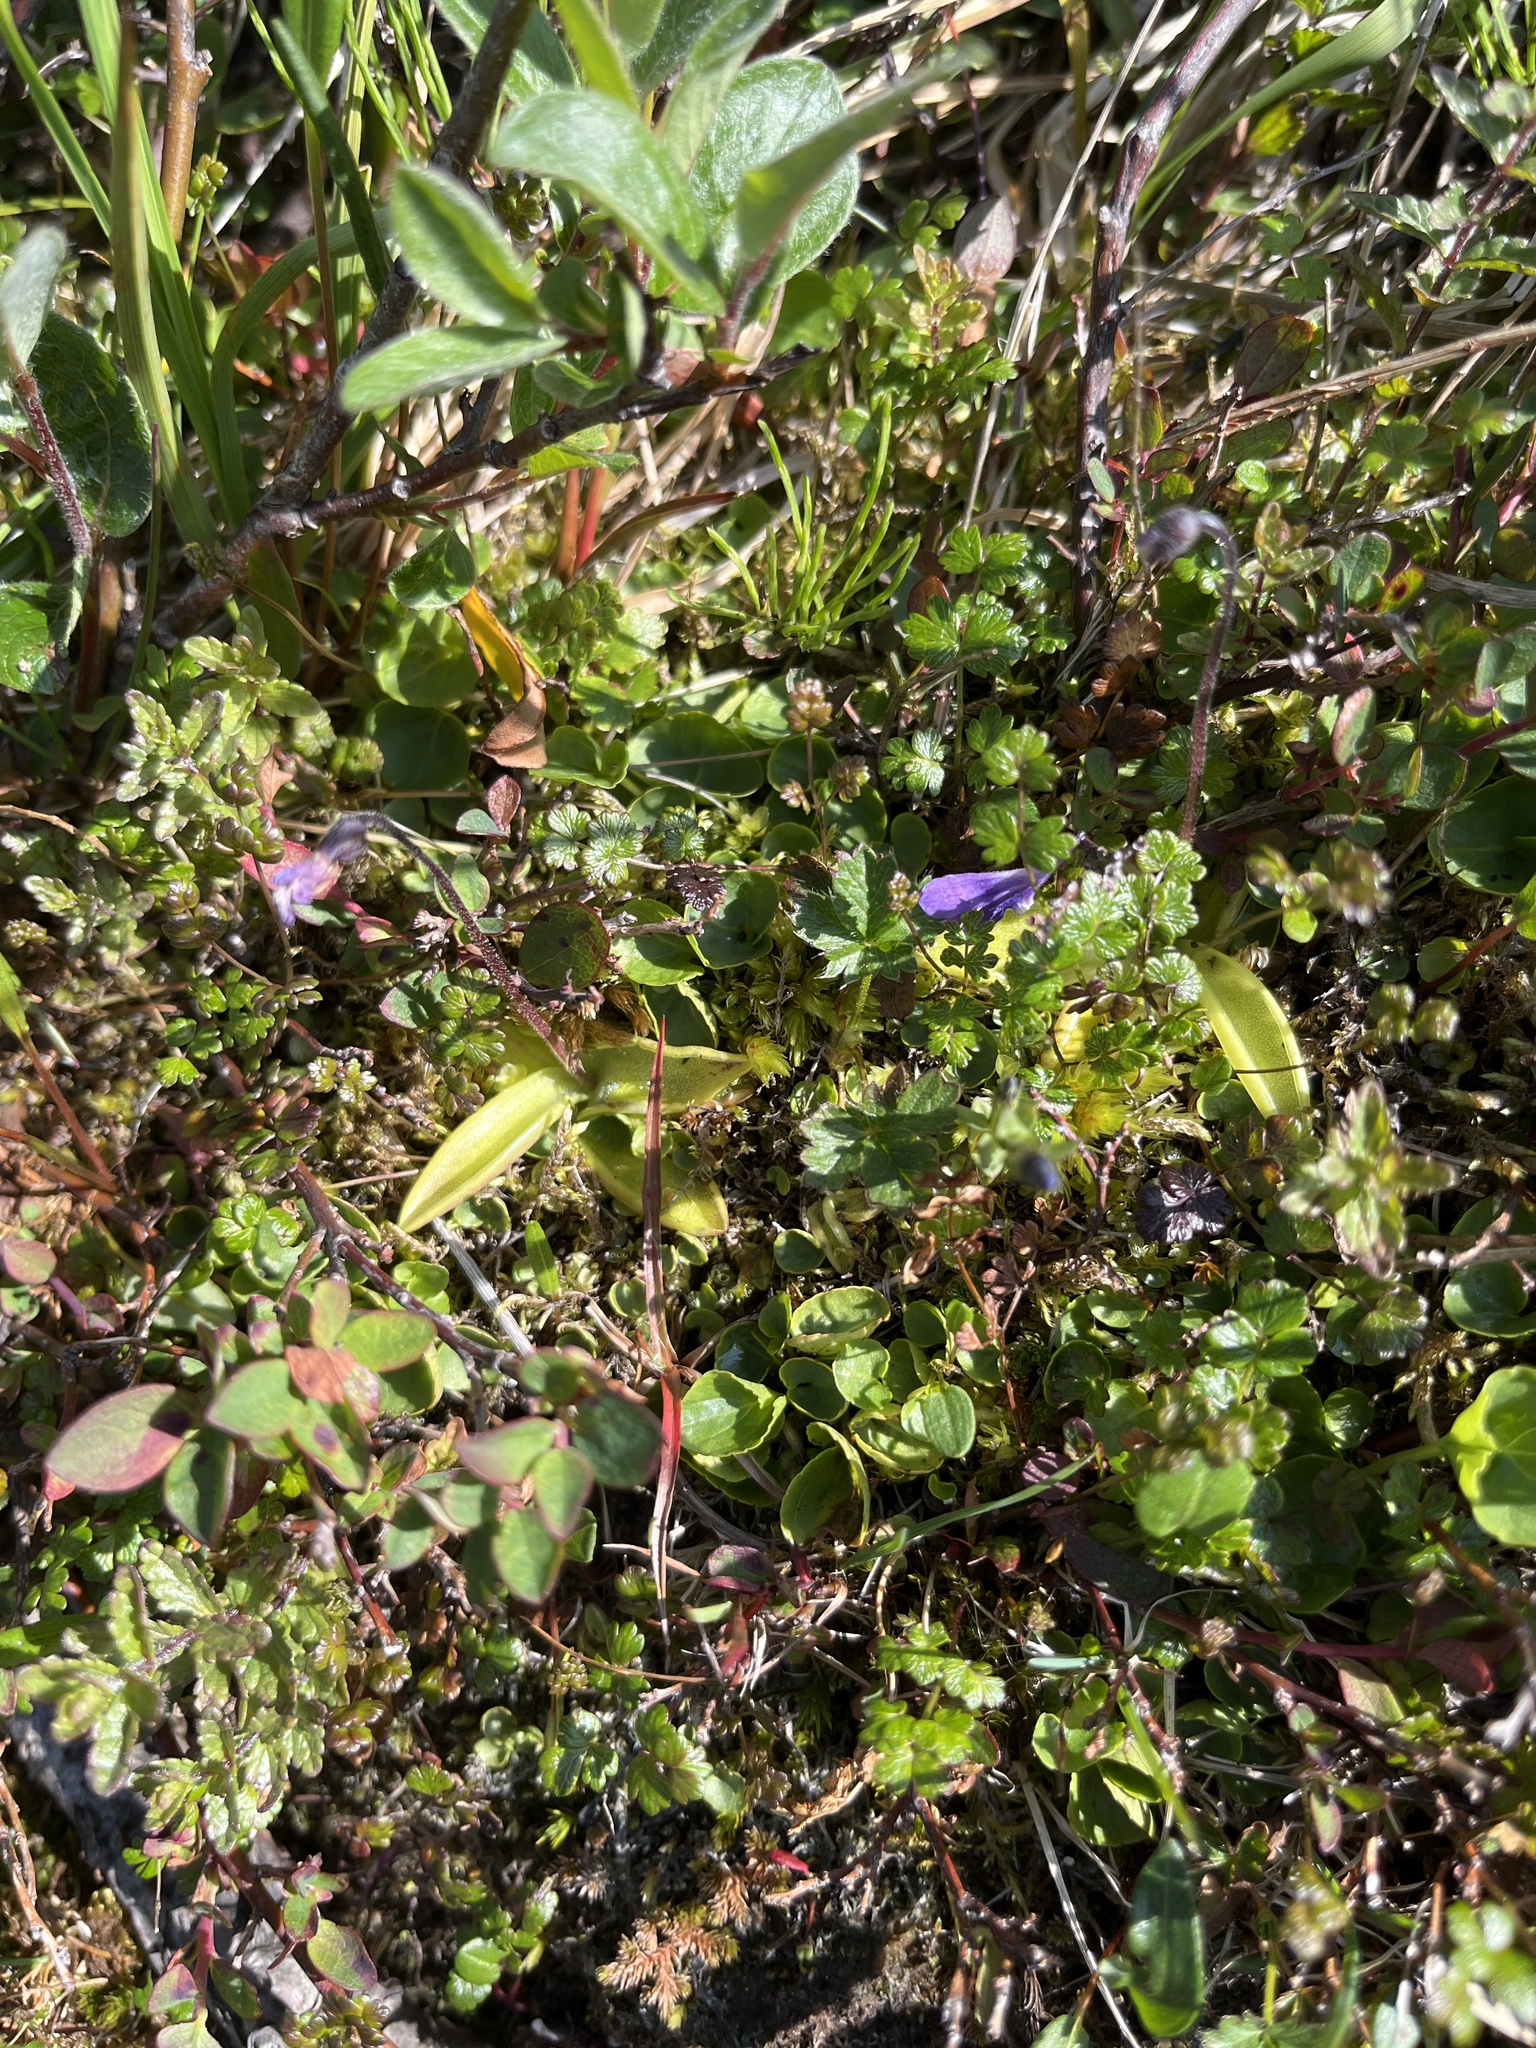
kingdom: Plantae
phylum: Tracheophyta
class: Magnoliopsida
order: Lamiales
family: Lentibulariaceae
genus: Pinguicula
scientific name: Pinguicula vulgaris
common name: Common butterwort
